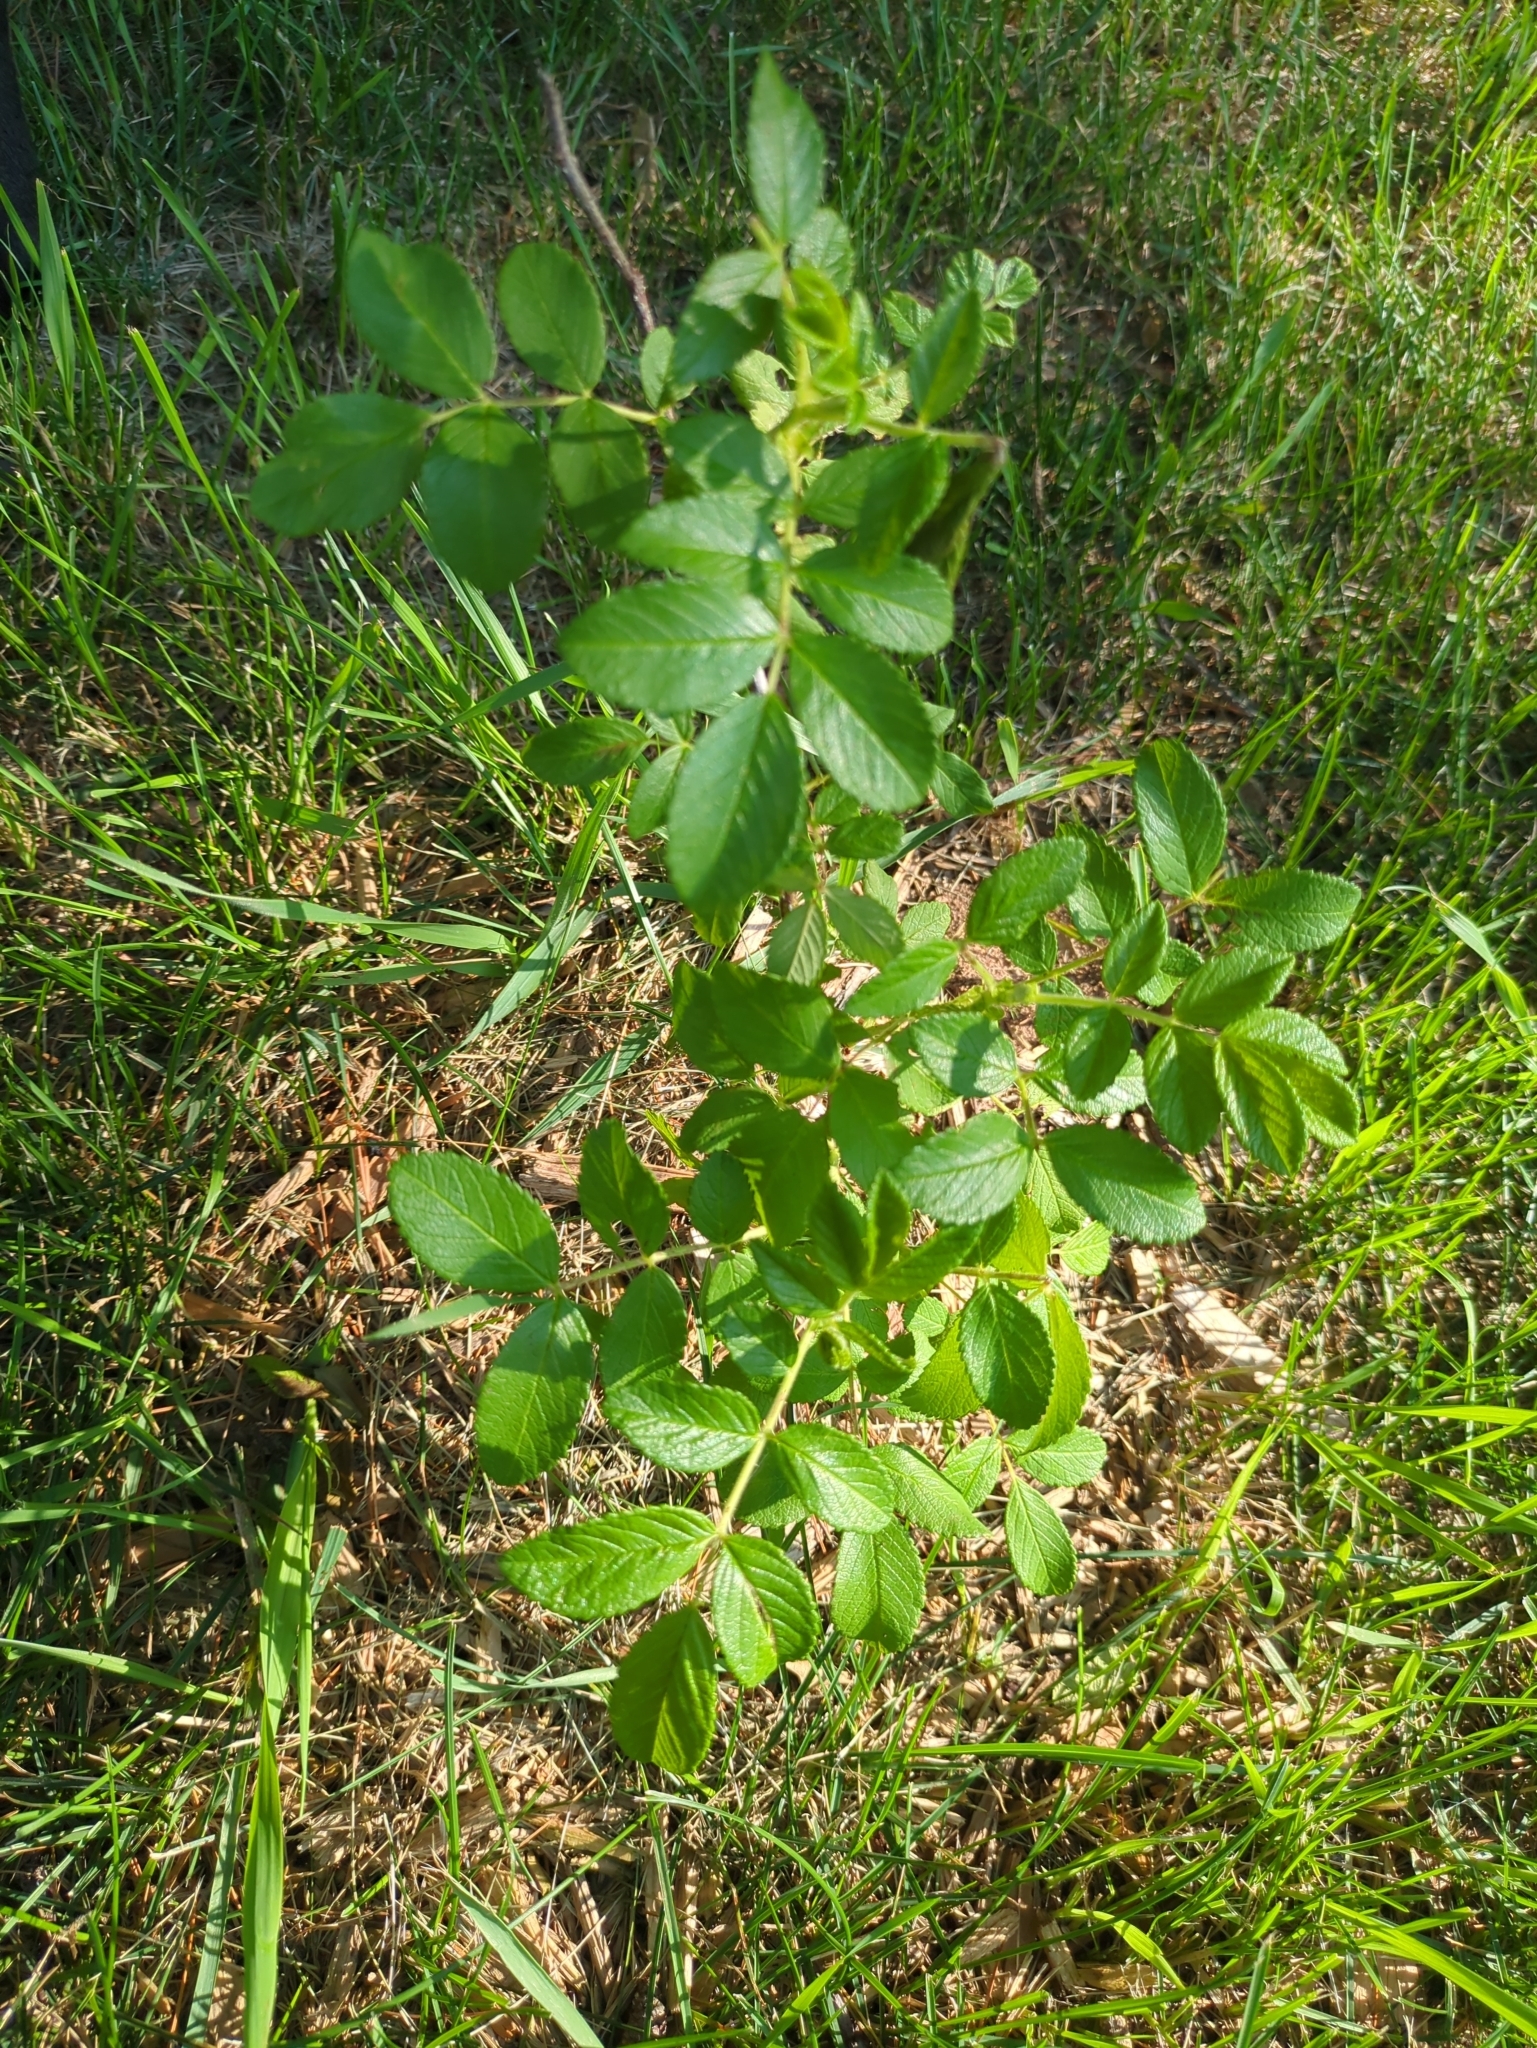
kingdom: Plantae
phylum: Tracheophyta
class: Magnoliopsida
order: Rosales
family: Rosaceae
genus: Rosa
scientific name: Rosa rugosa
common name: Japanese rose
